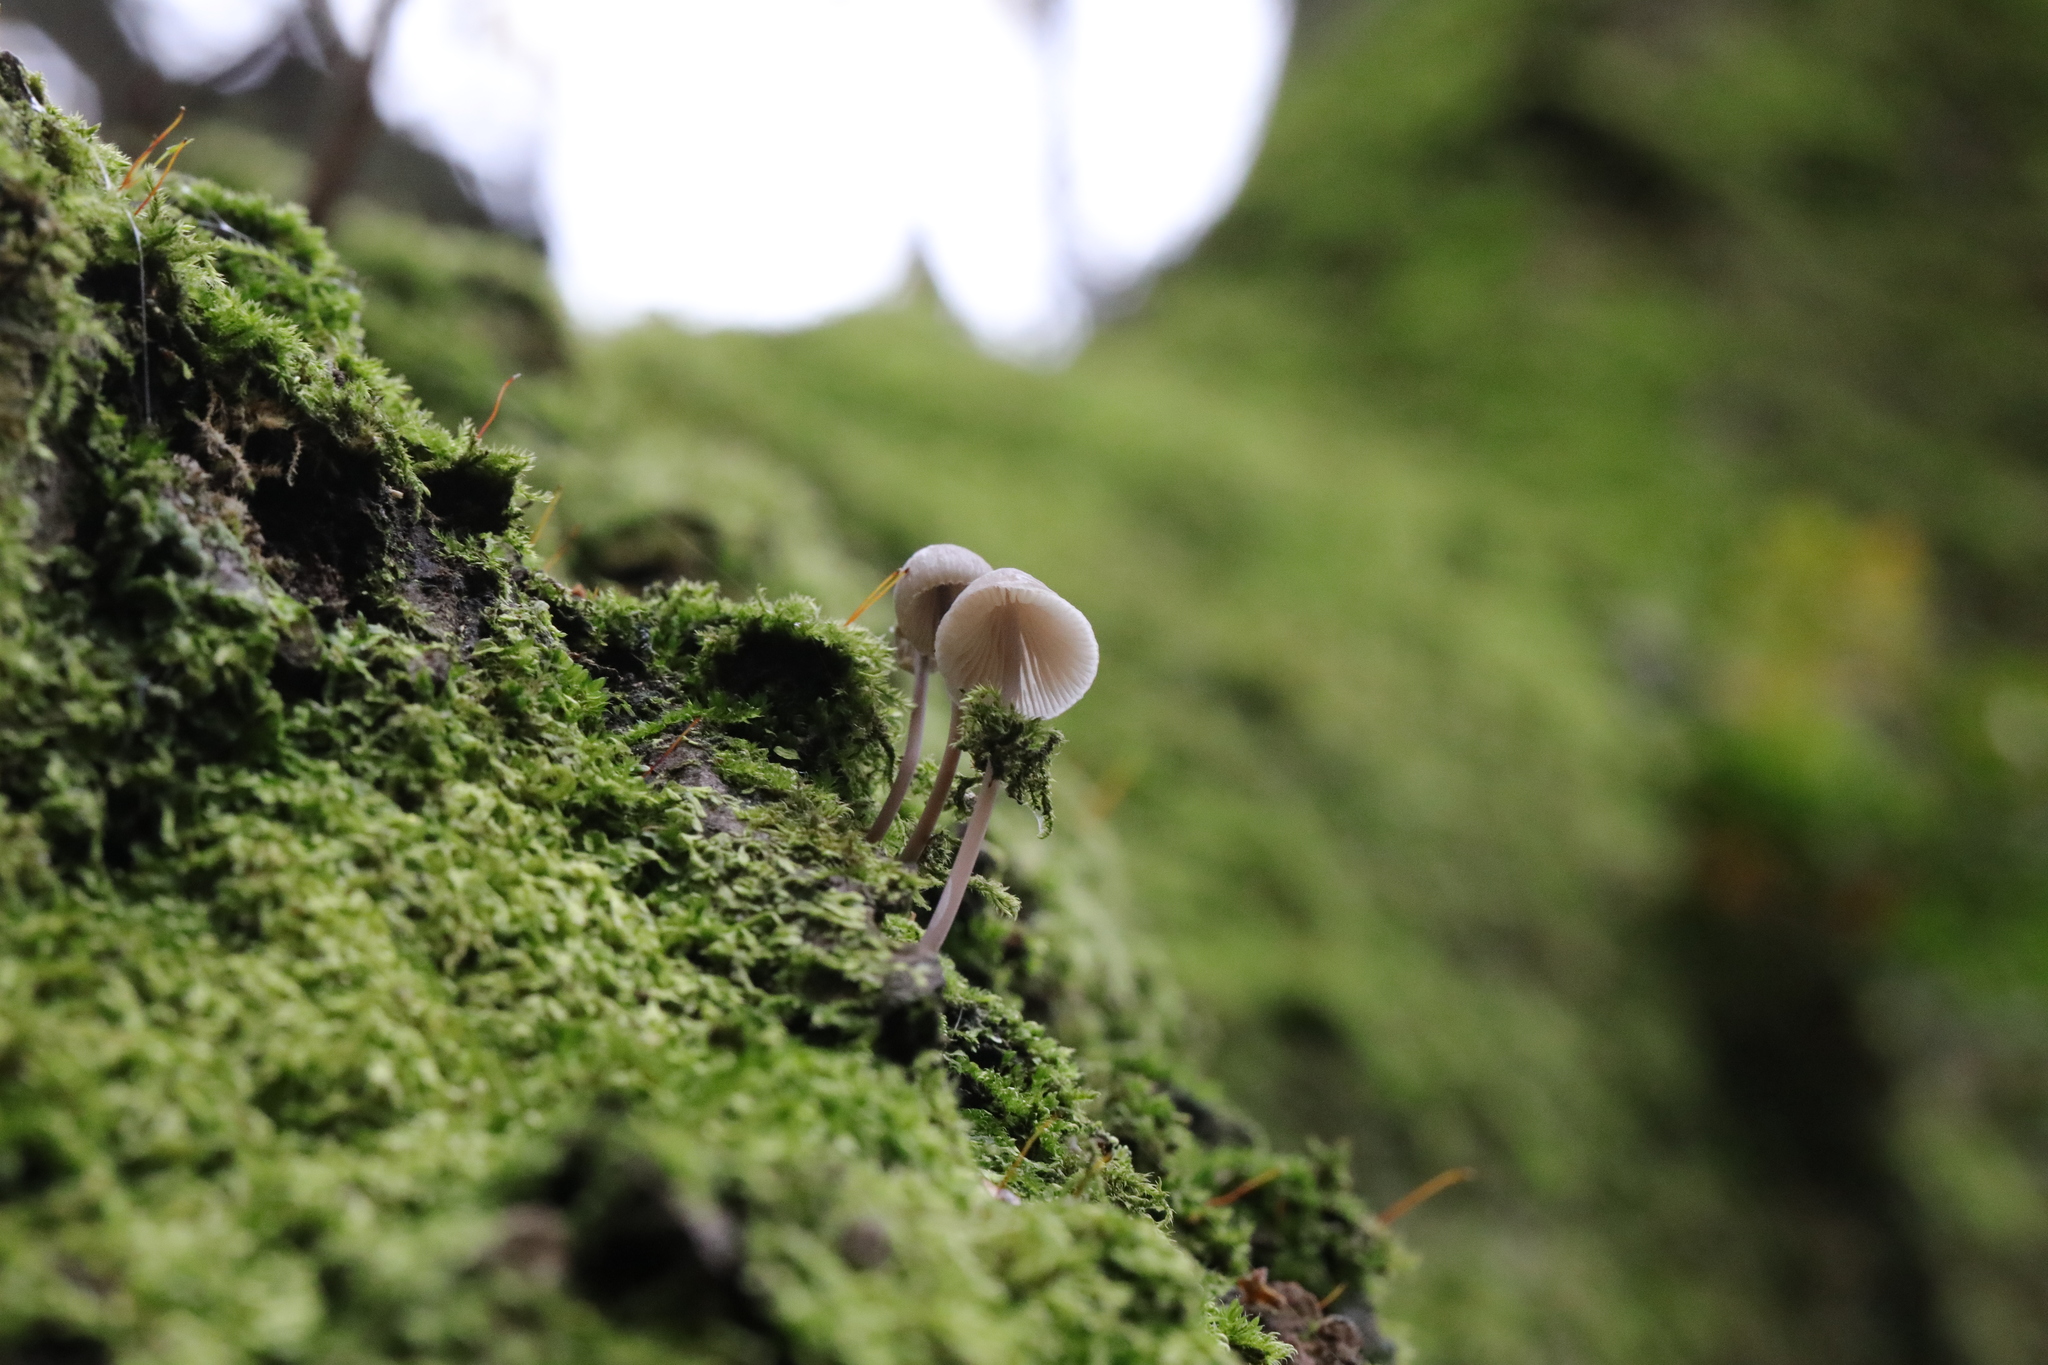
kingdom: Fungi
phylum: Basidiomycota
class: Agaricomycetes
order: Agaricales
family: Mycenaceae
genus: Mycena
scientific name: Mycena galericulata
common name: Bonnet mycena
